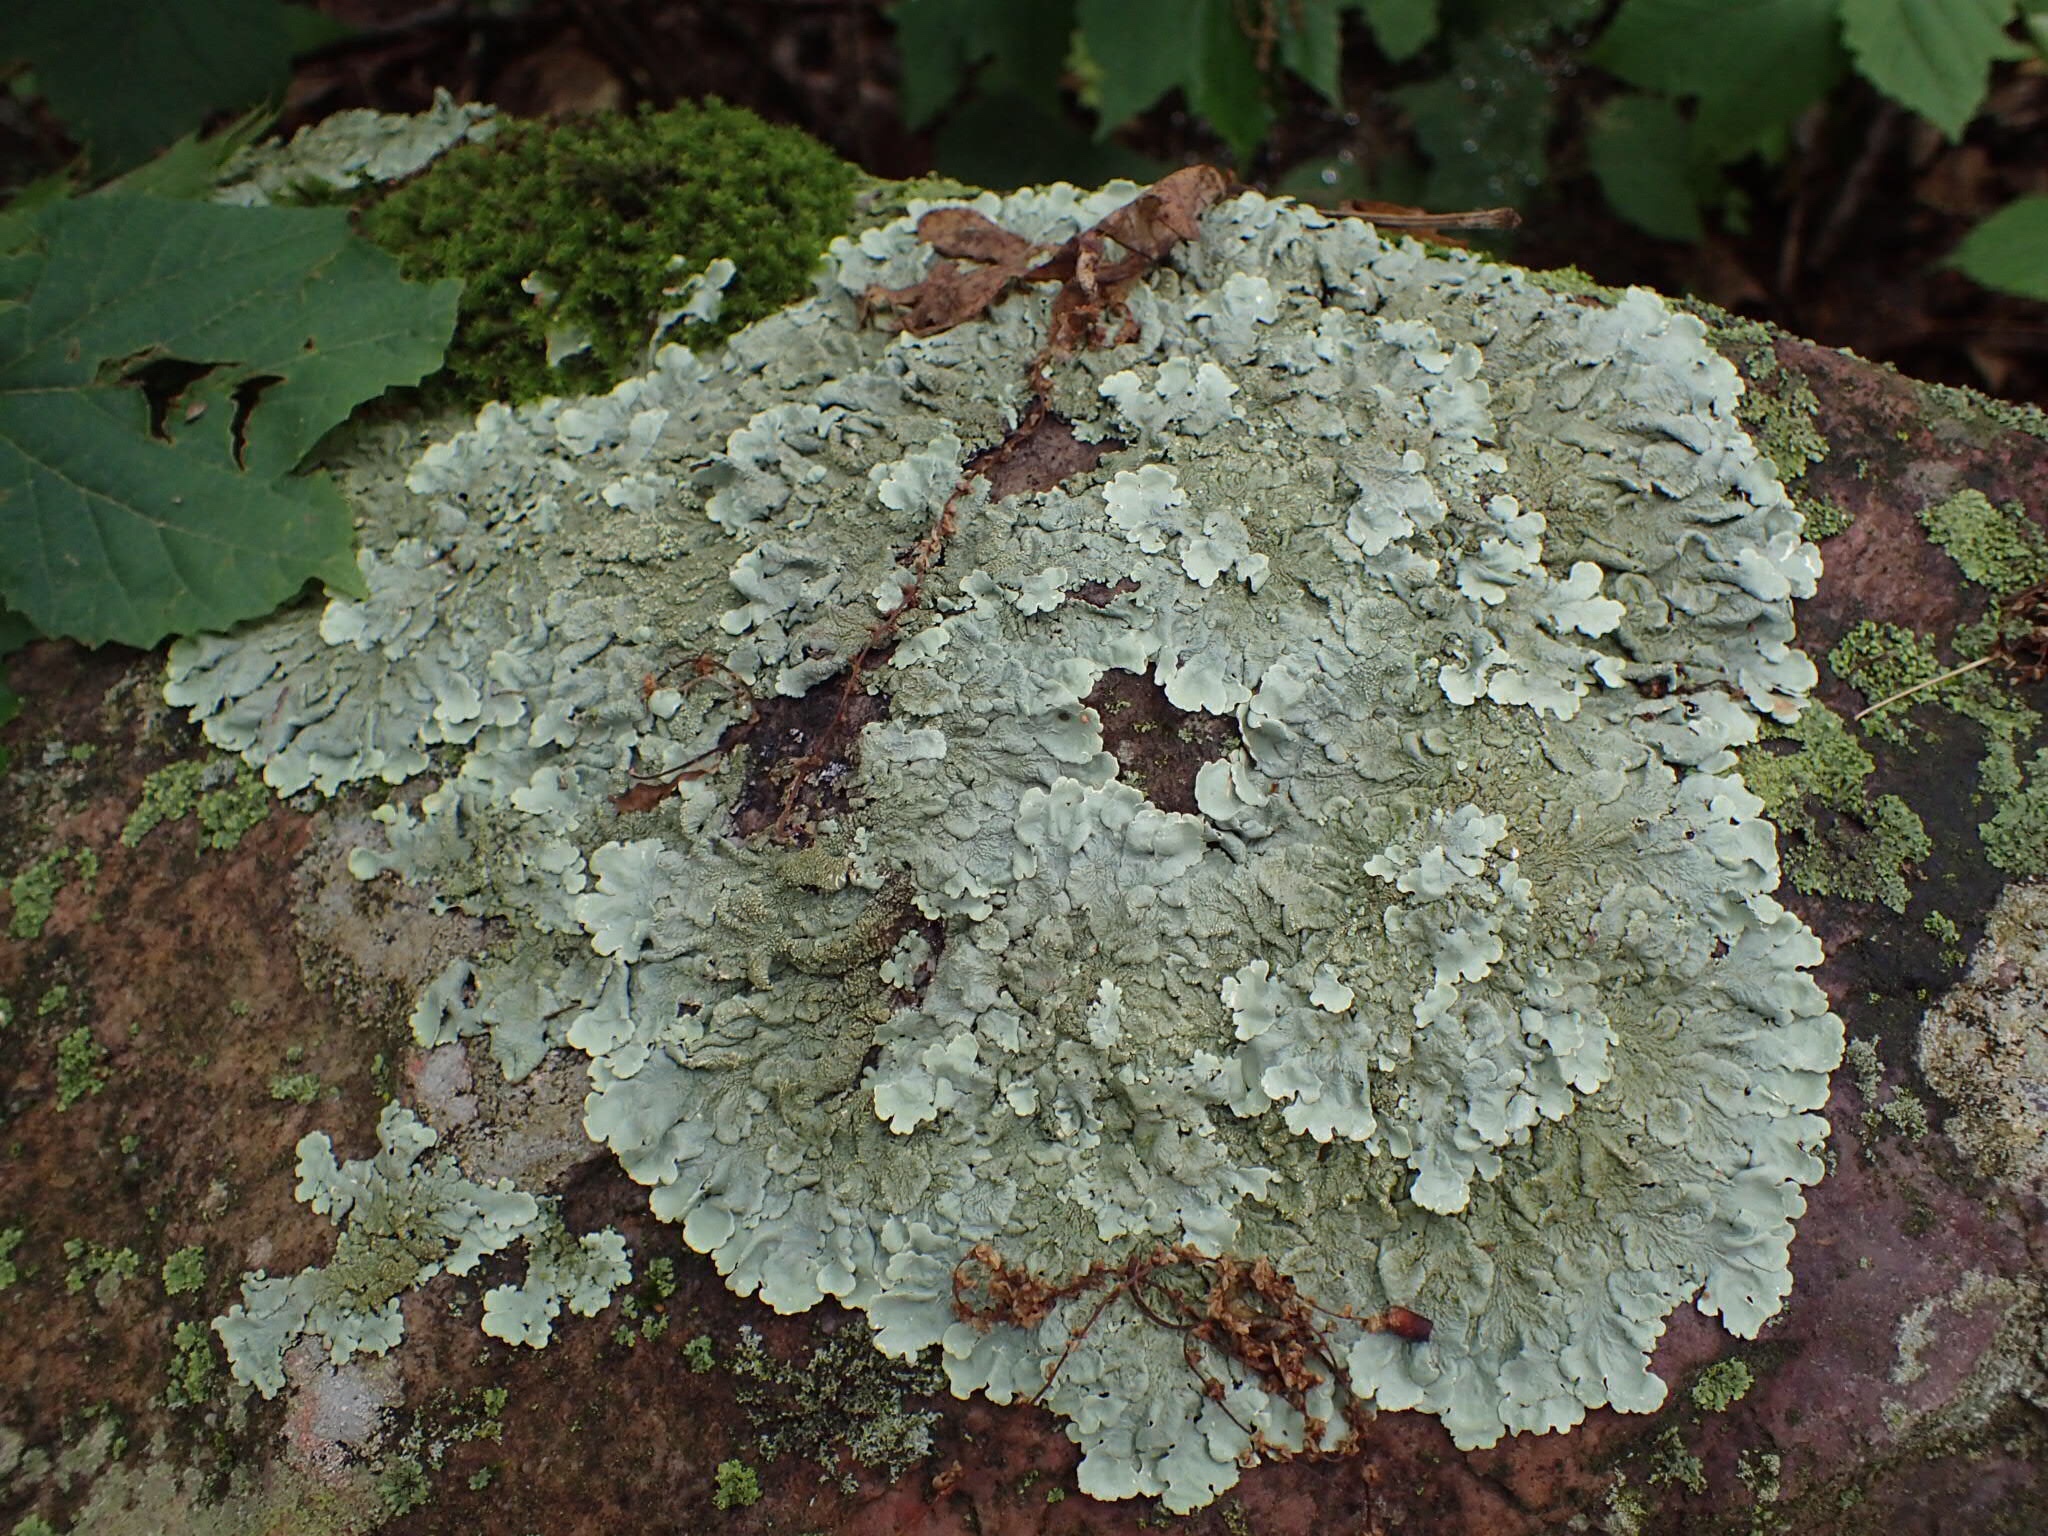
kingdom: Fungi
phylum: Ascomycota
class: Lecanoromycetes
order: Lecanorales
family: Parmeliaceae
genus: Flavoparmelia
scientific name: Flavoparmelia caperata
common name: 40-mile per hour lichen
